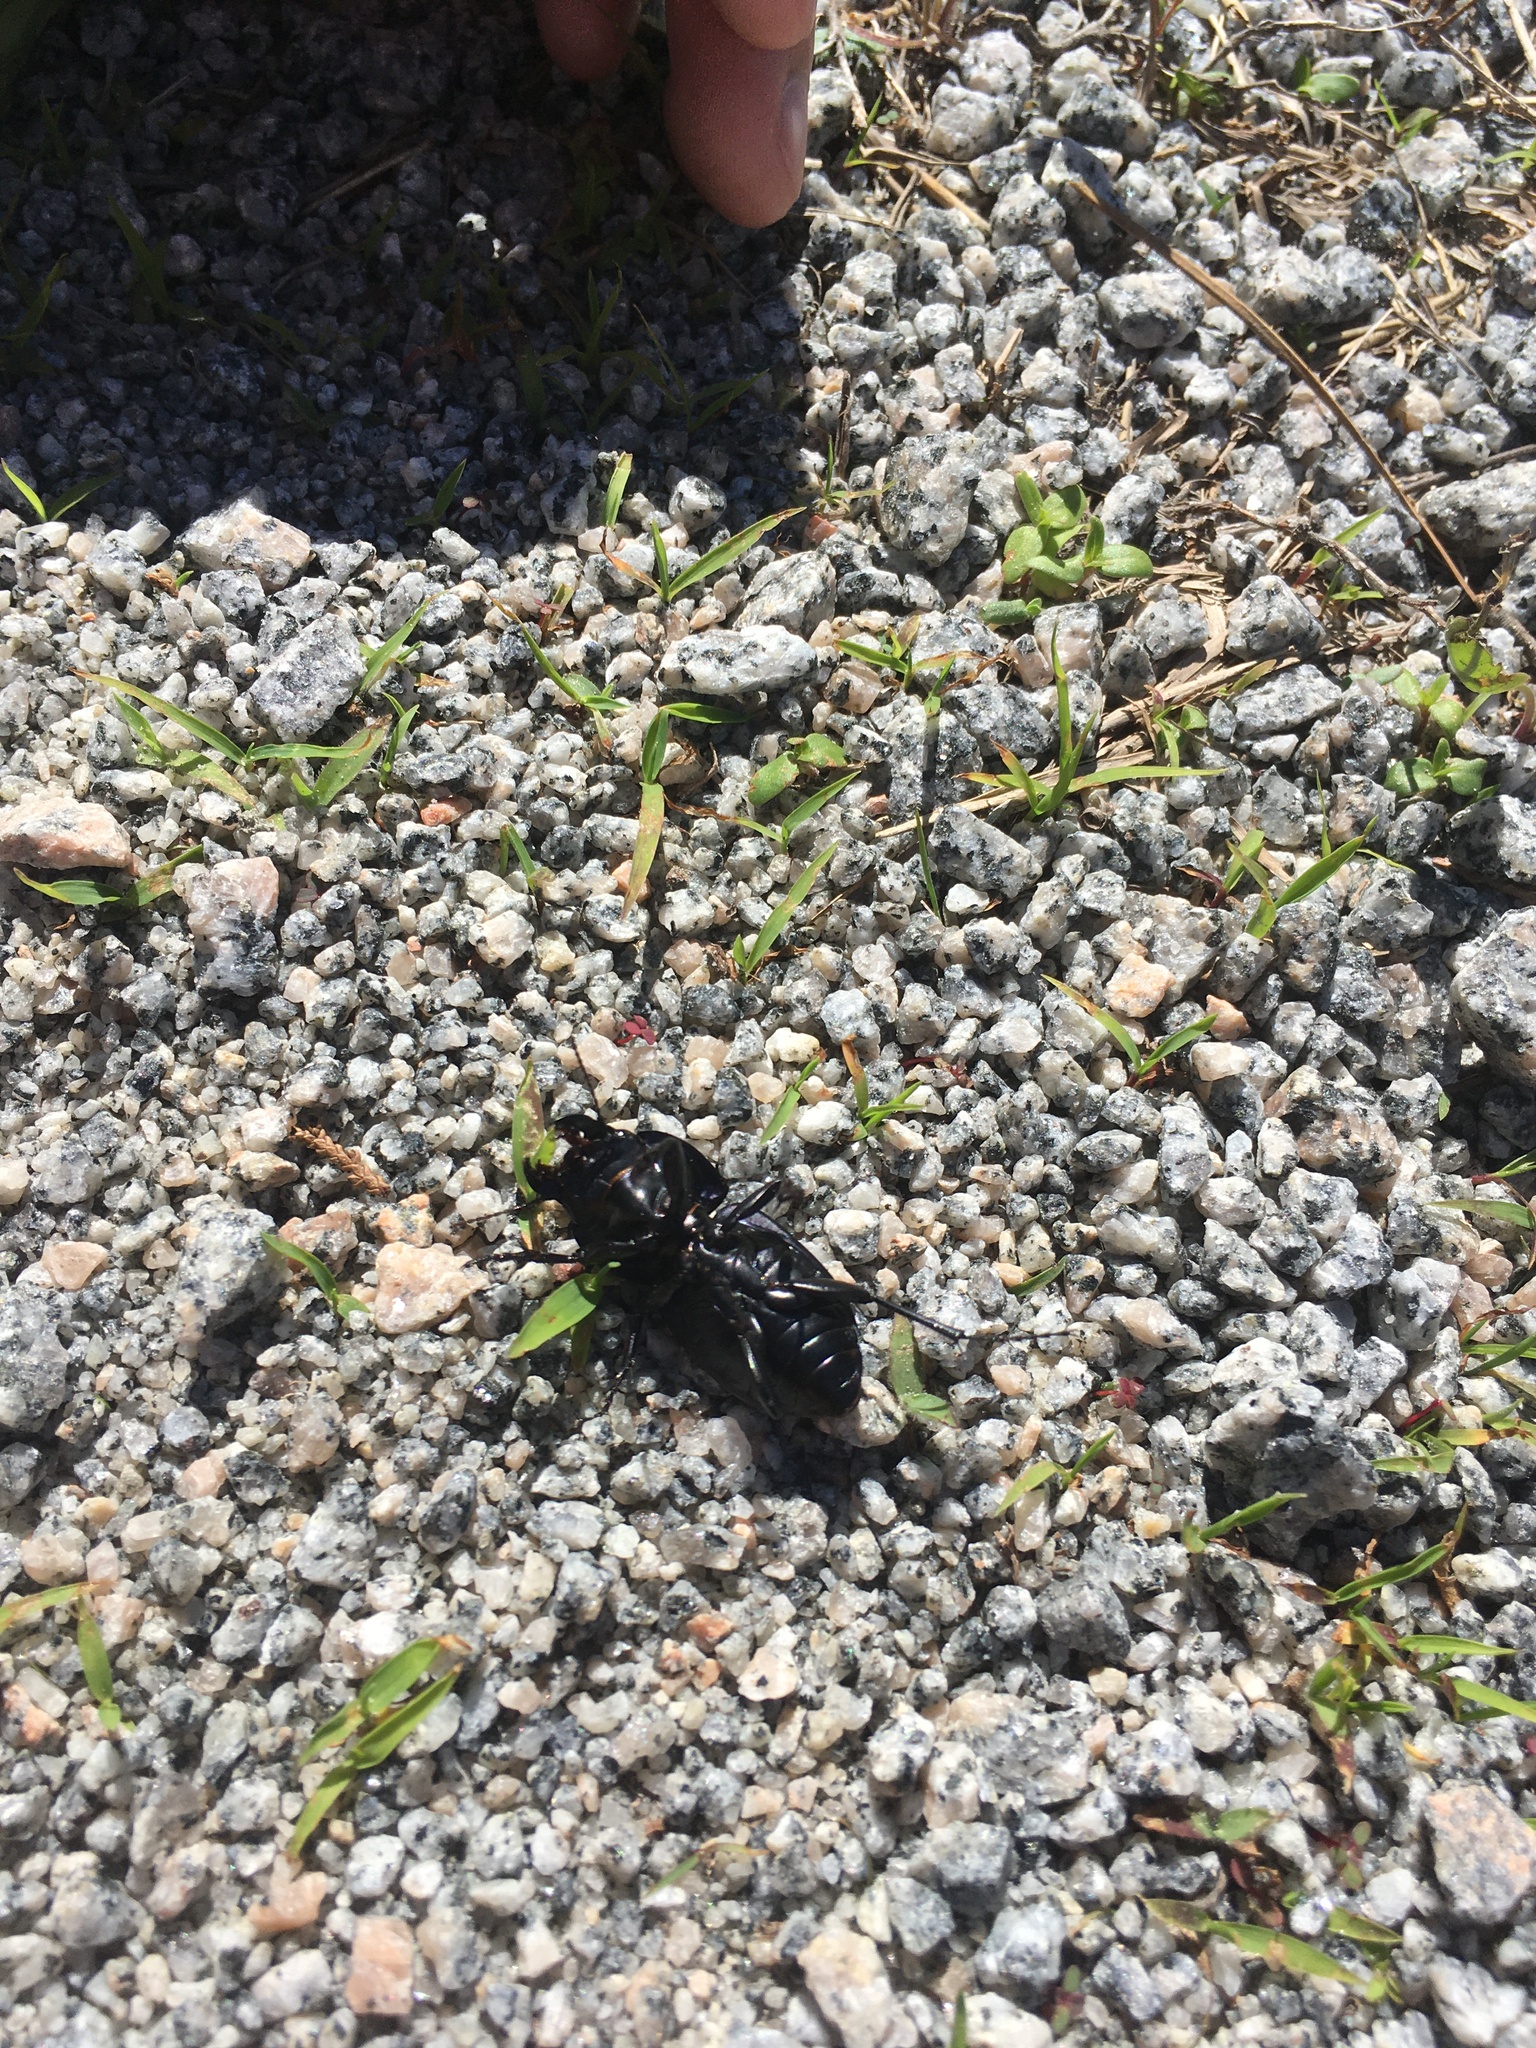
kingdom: Animalia
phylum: Arthropoda
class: Insecta
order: Coleoptera
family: Carabidae
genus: Pasimachus
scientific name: Pasimachus marginatus
